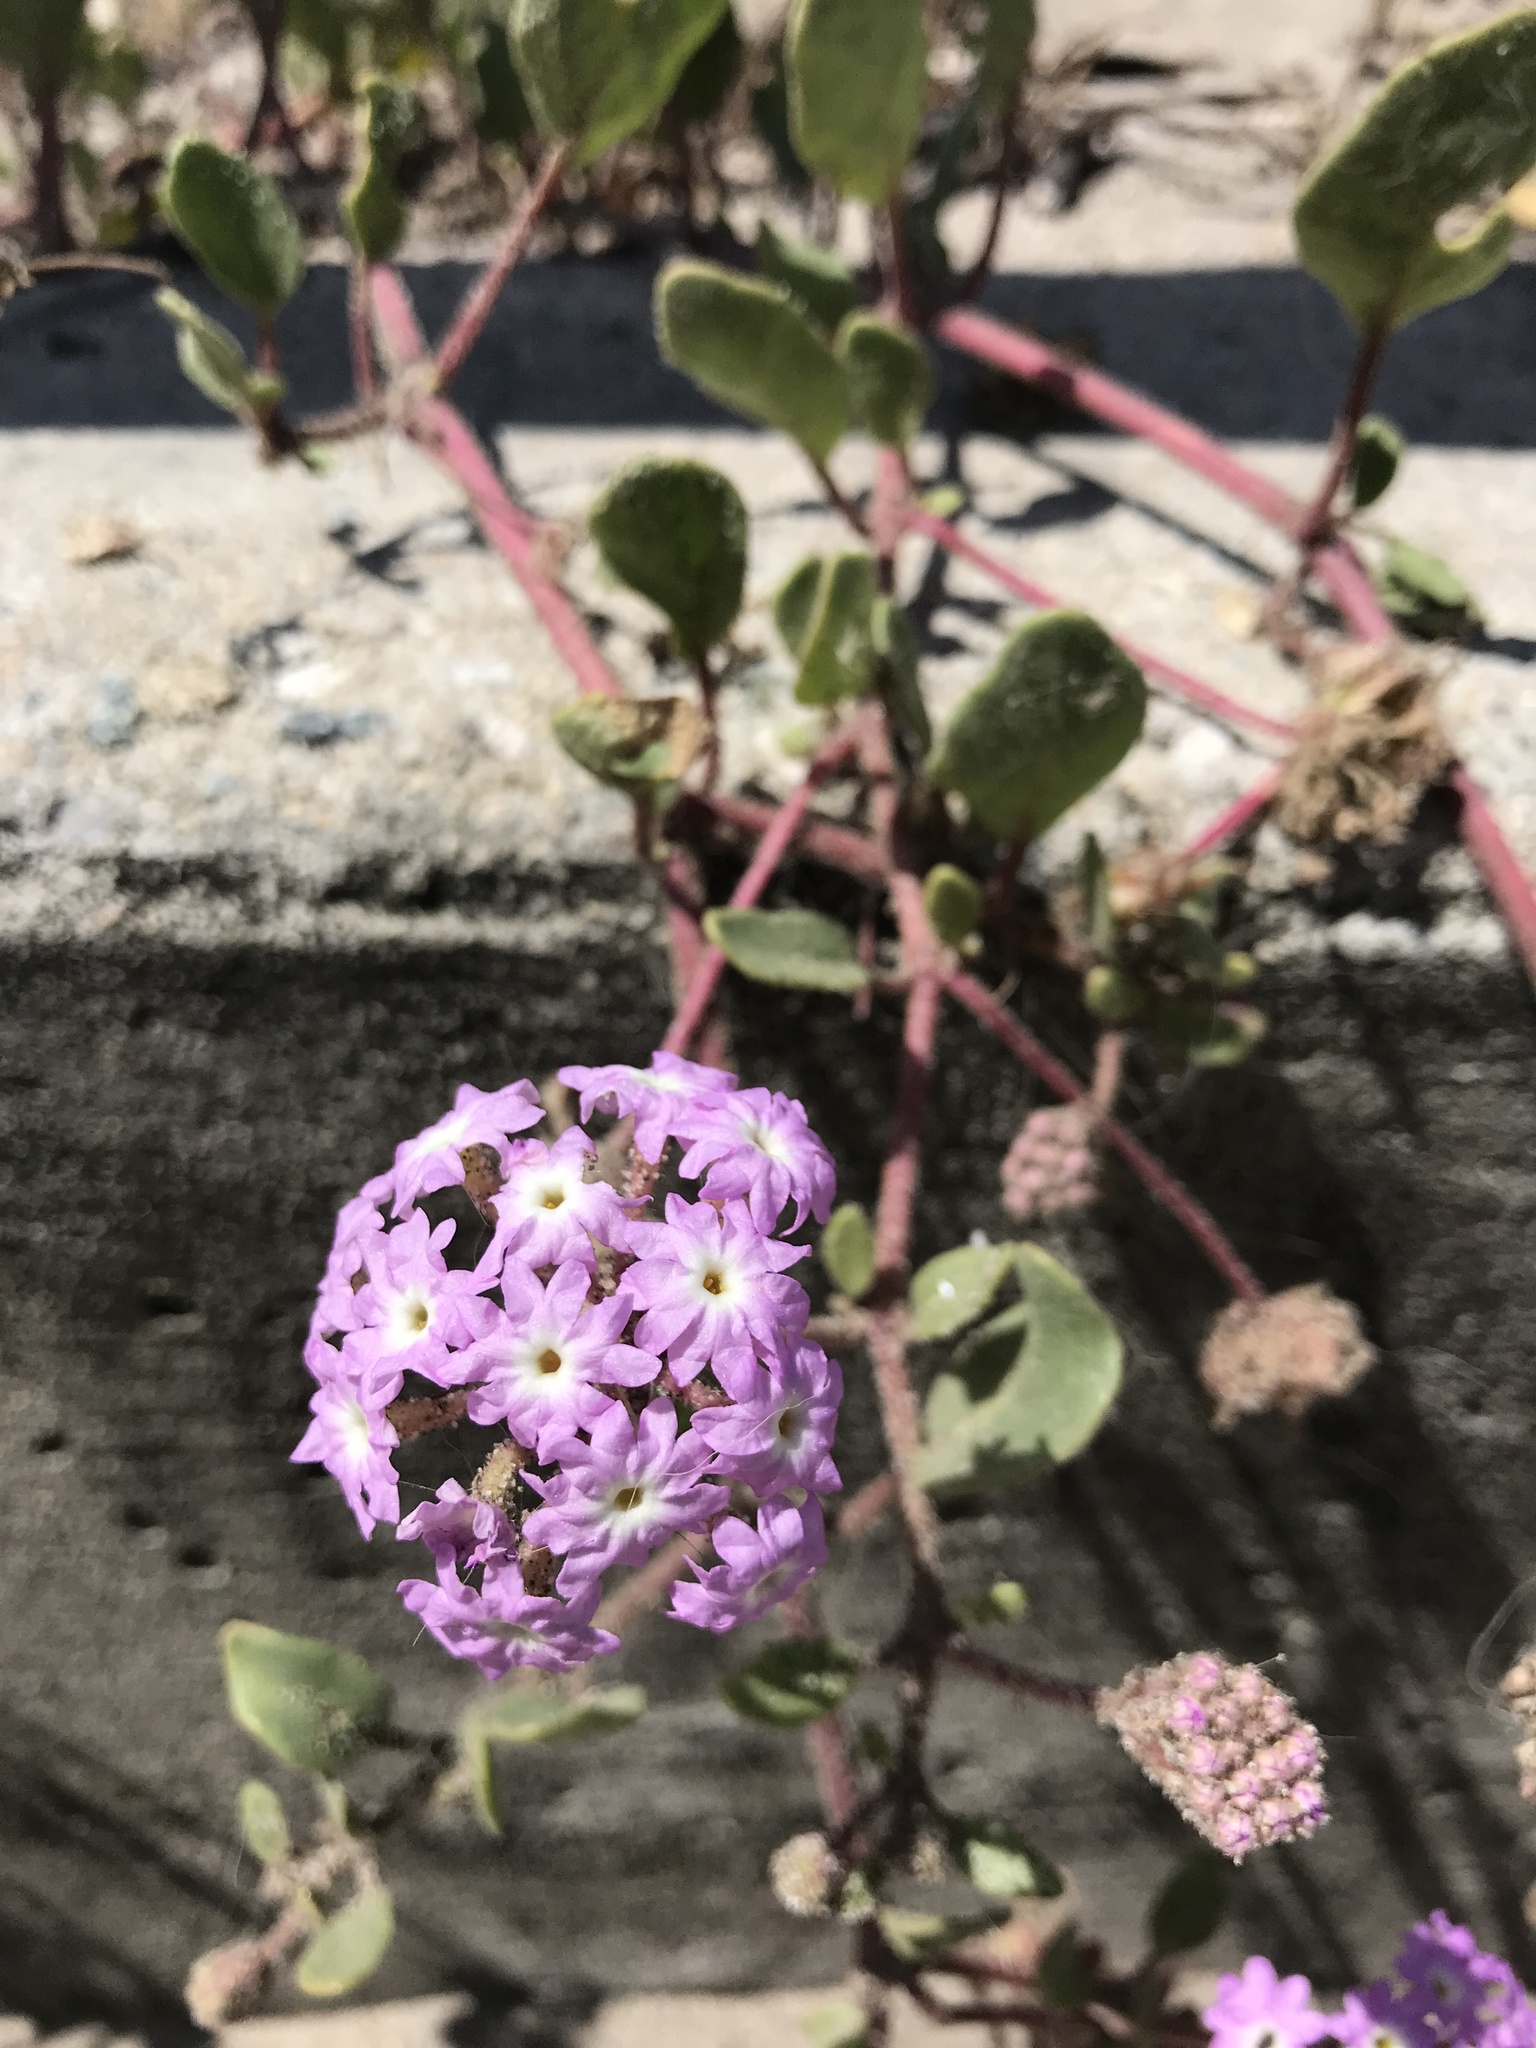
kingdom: Plantae
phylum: Tracheophyta
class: Magnoliopsida
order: Caryophyllales
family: Nyctaginaceae
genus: Abronia
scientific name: Abronia umbellata
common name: Sand-verbena
